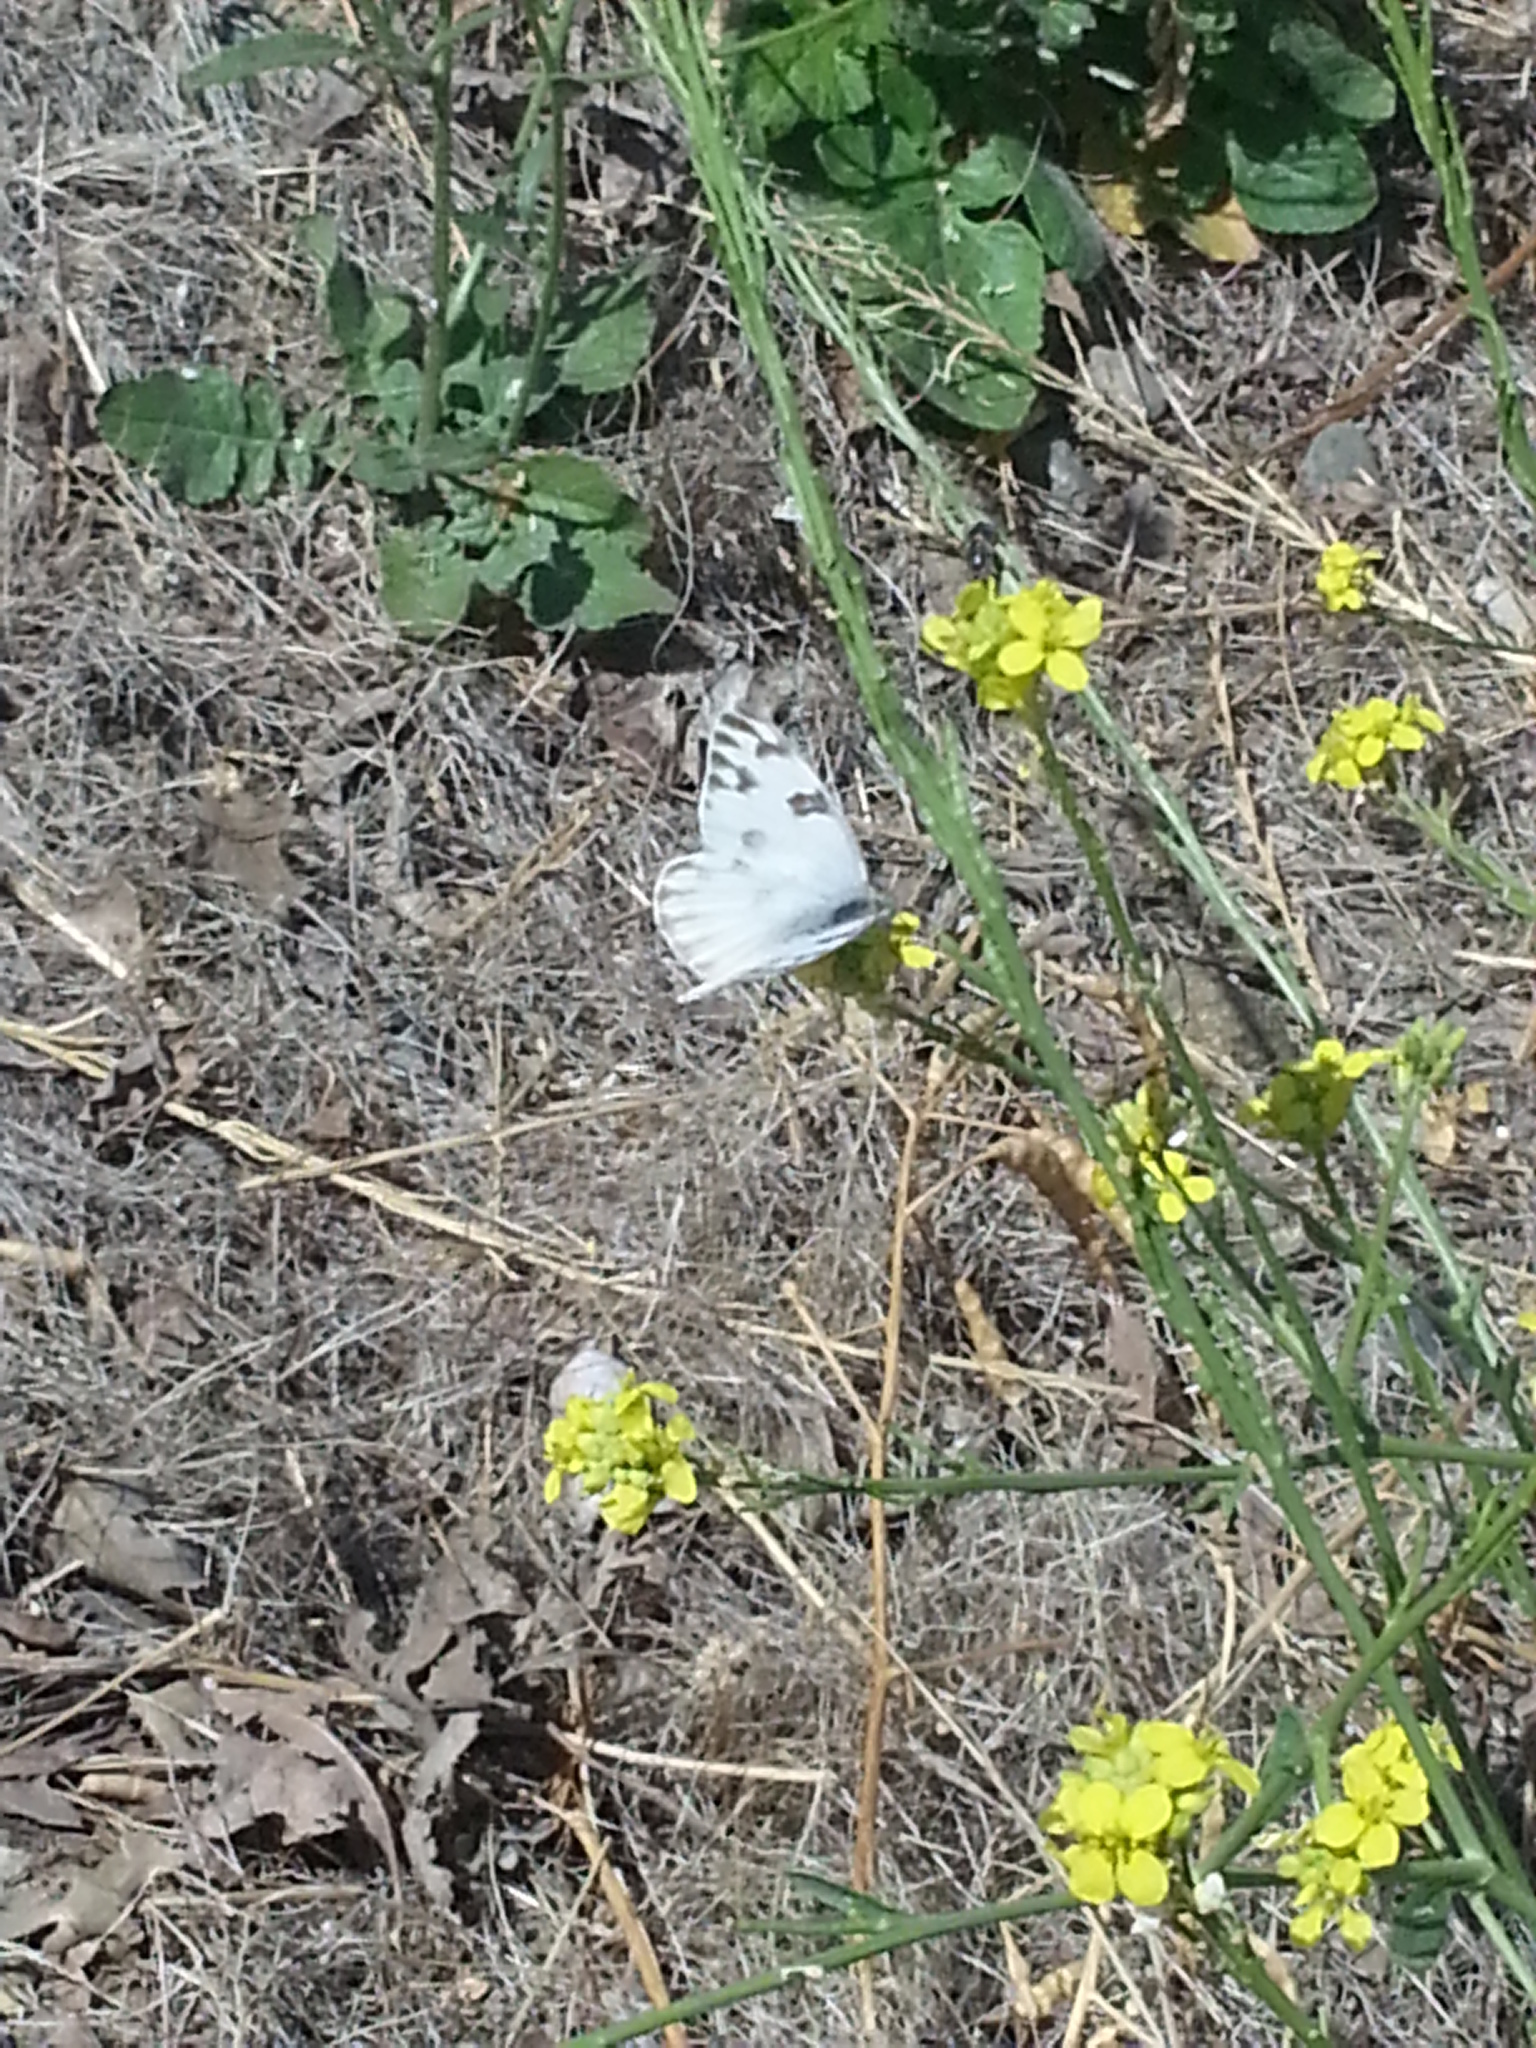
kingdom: Animalia
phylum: Arthropoda
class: Insecta
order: Lepidoptera
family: Pieridae
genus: Pontia
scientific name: Pontia protodice
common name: Checkered white
